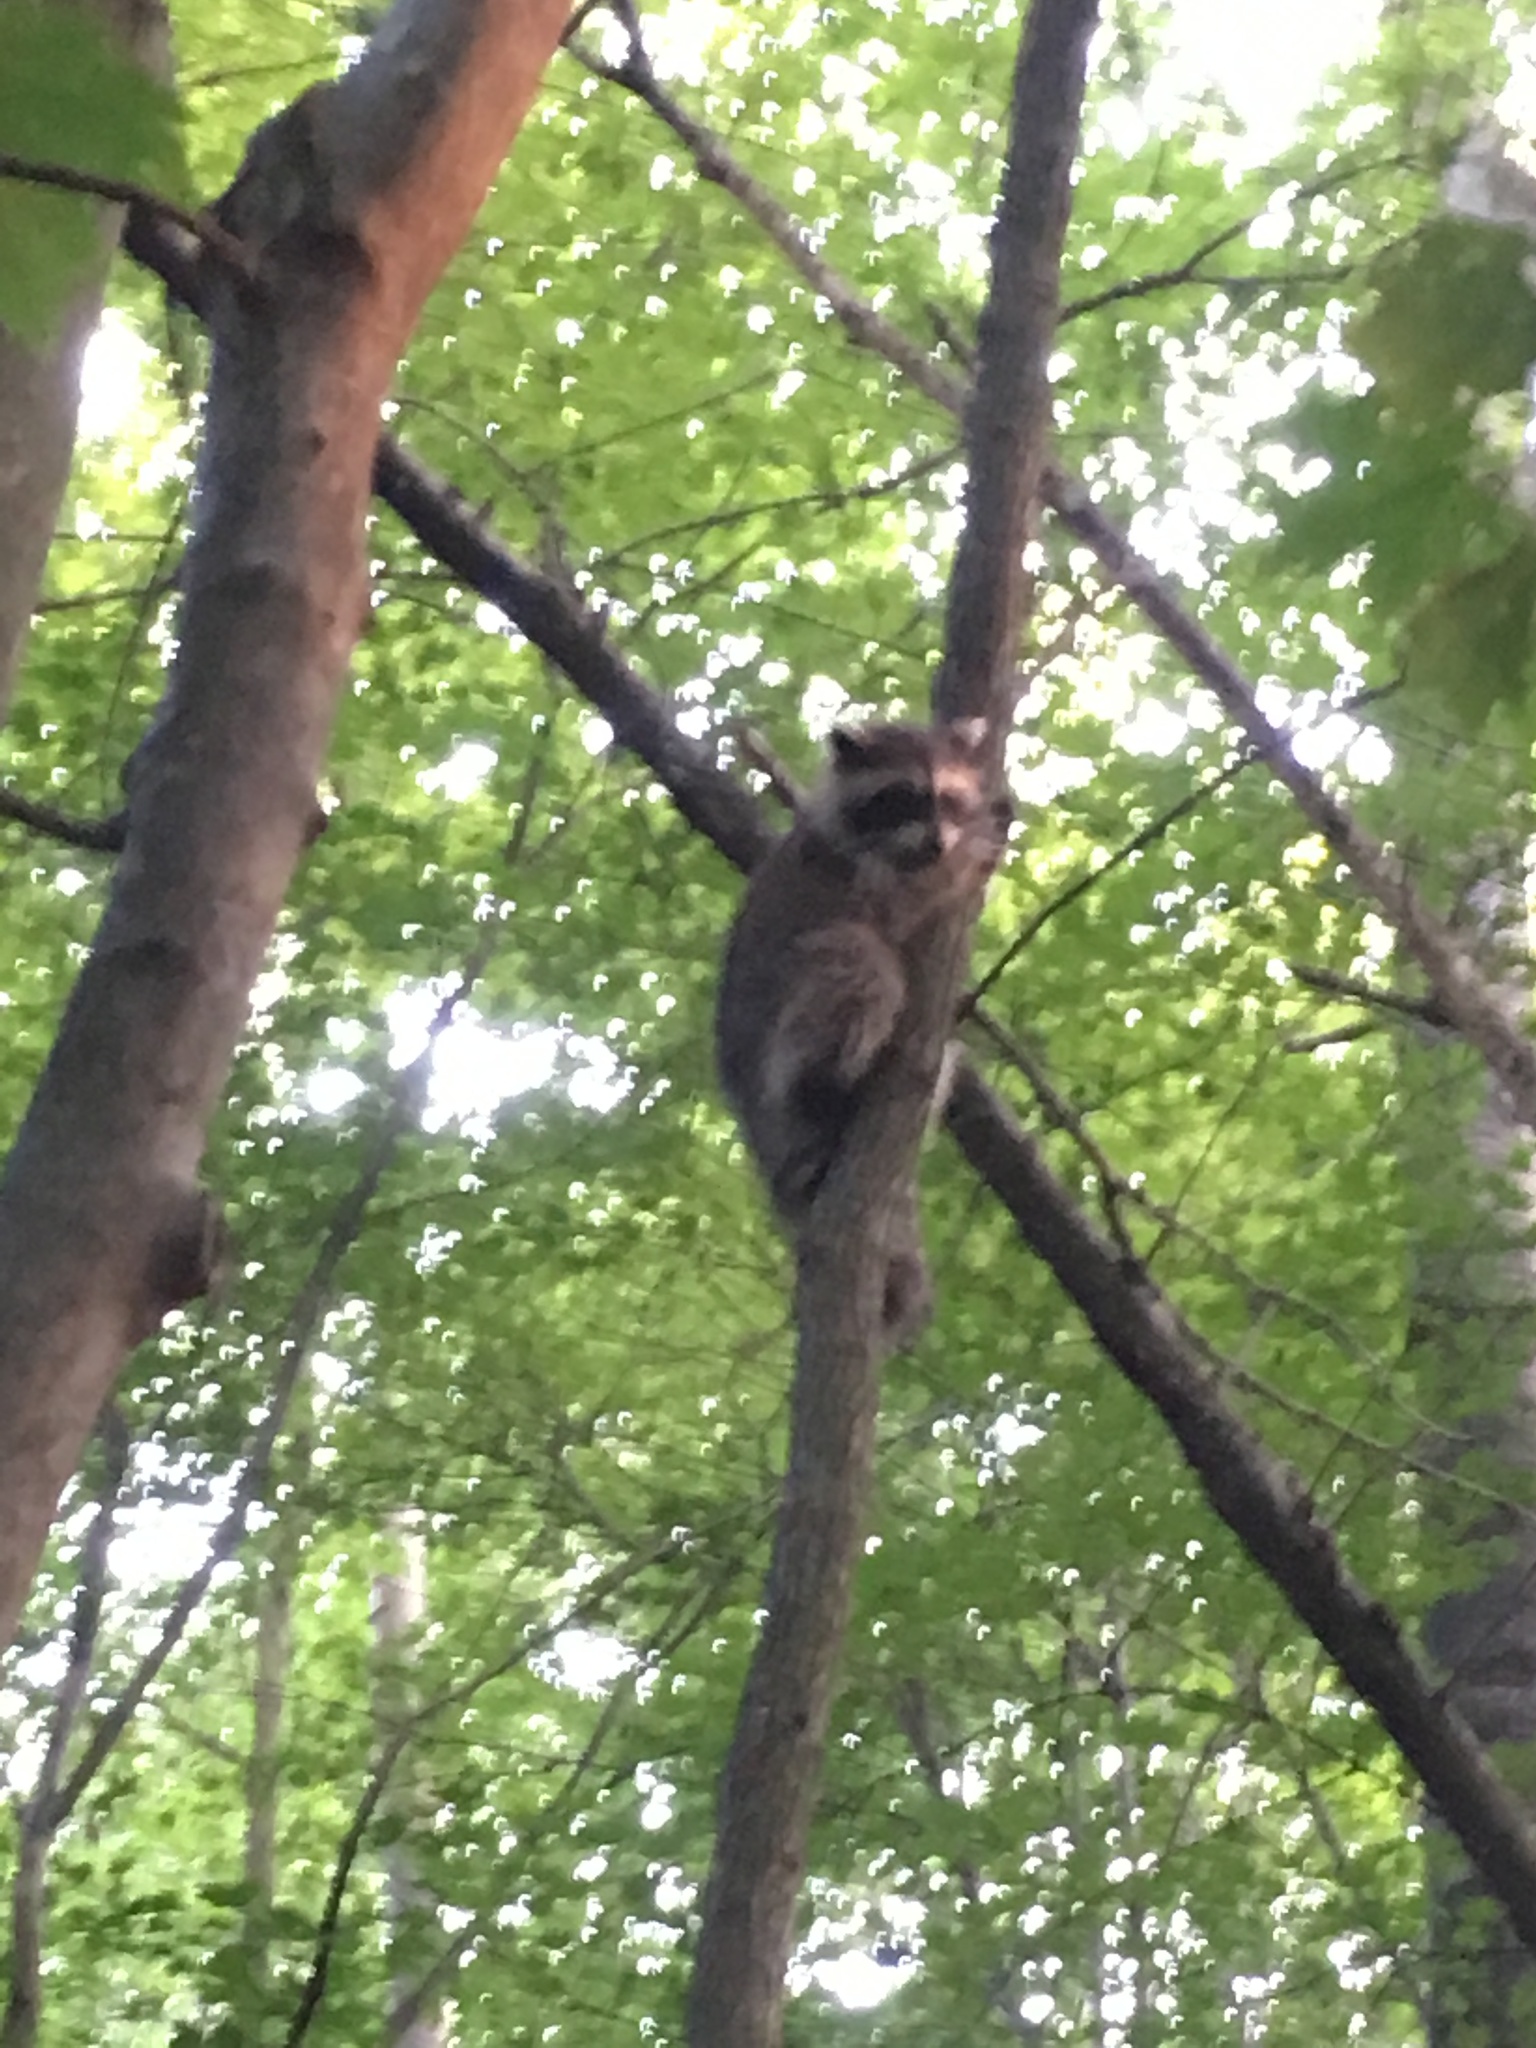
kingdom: Animalia
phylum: Chordata
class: Mammalia
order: Carnivora
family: Procyonidae
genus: Procyon
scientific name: Procyon lotor
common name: Raccoon
